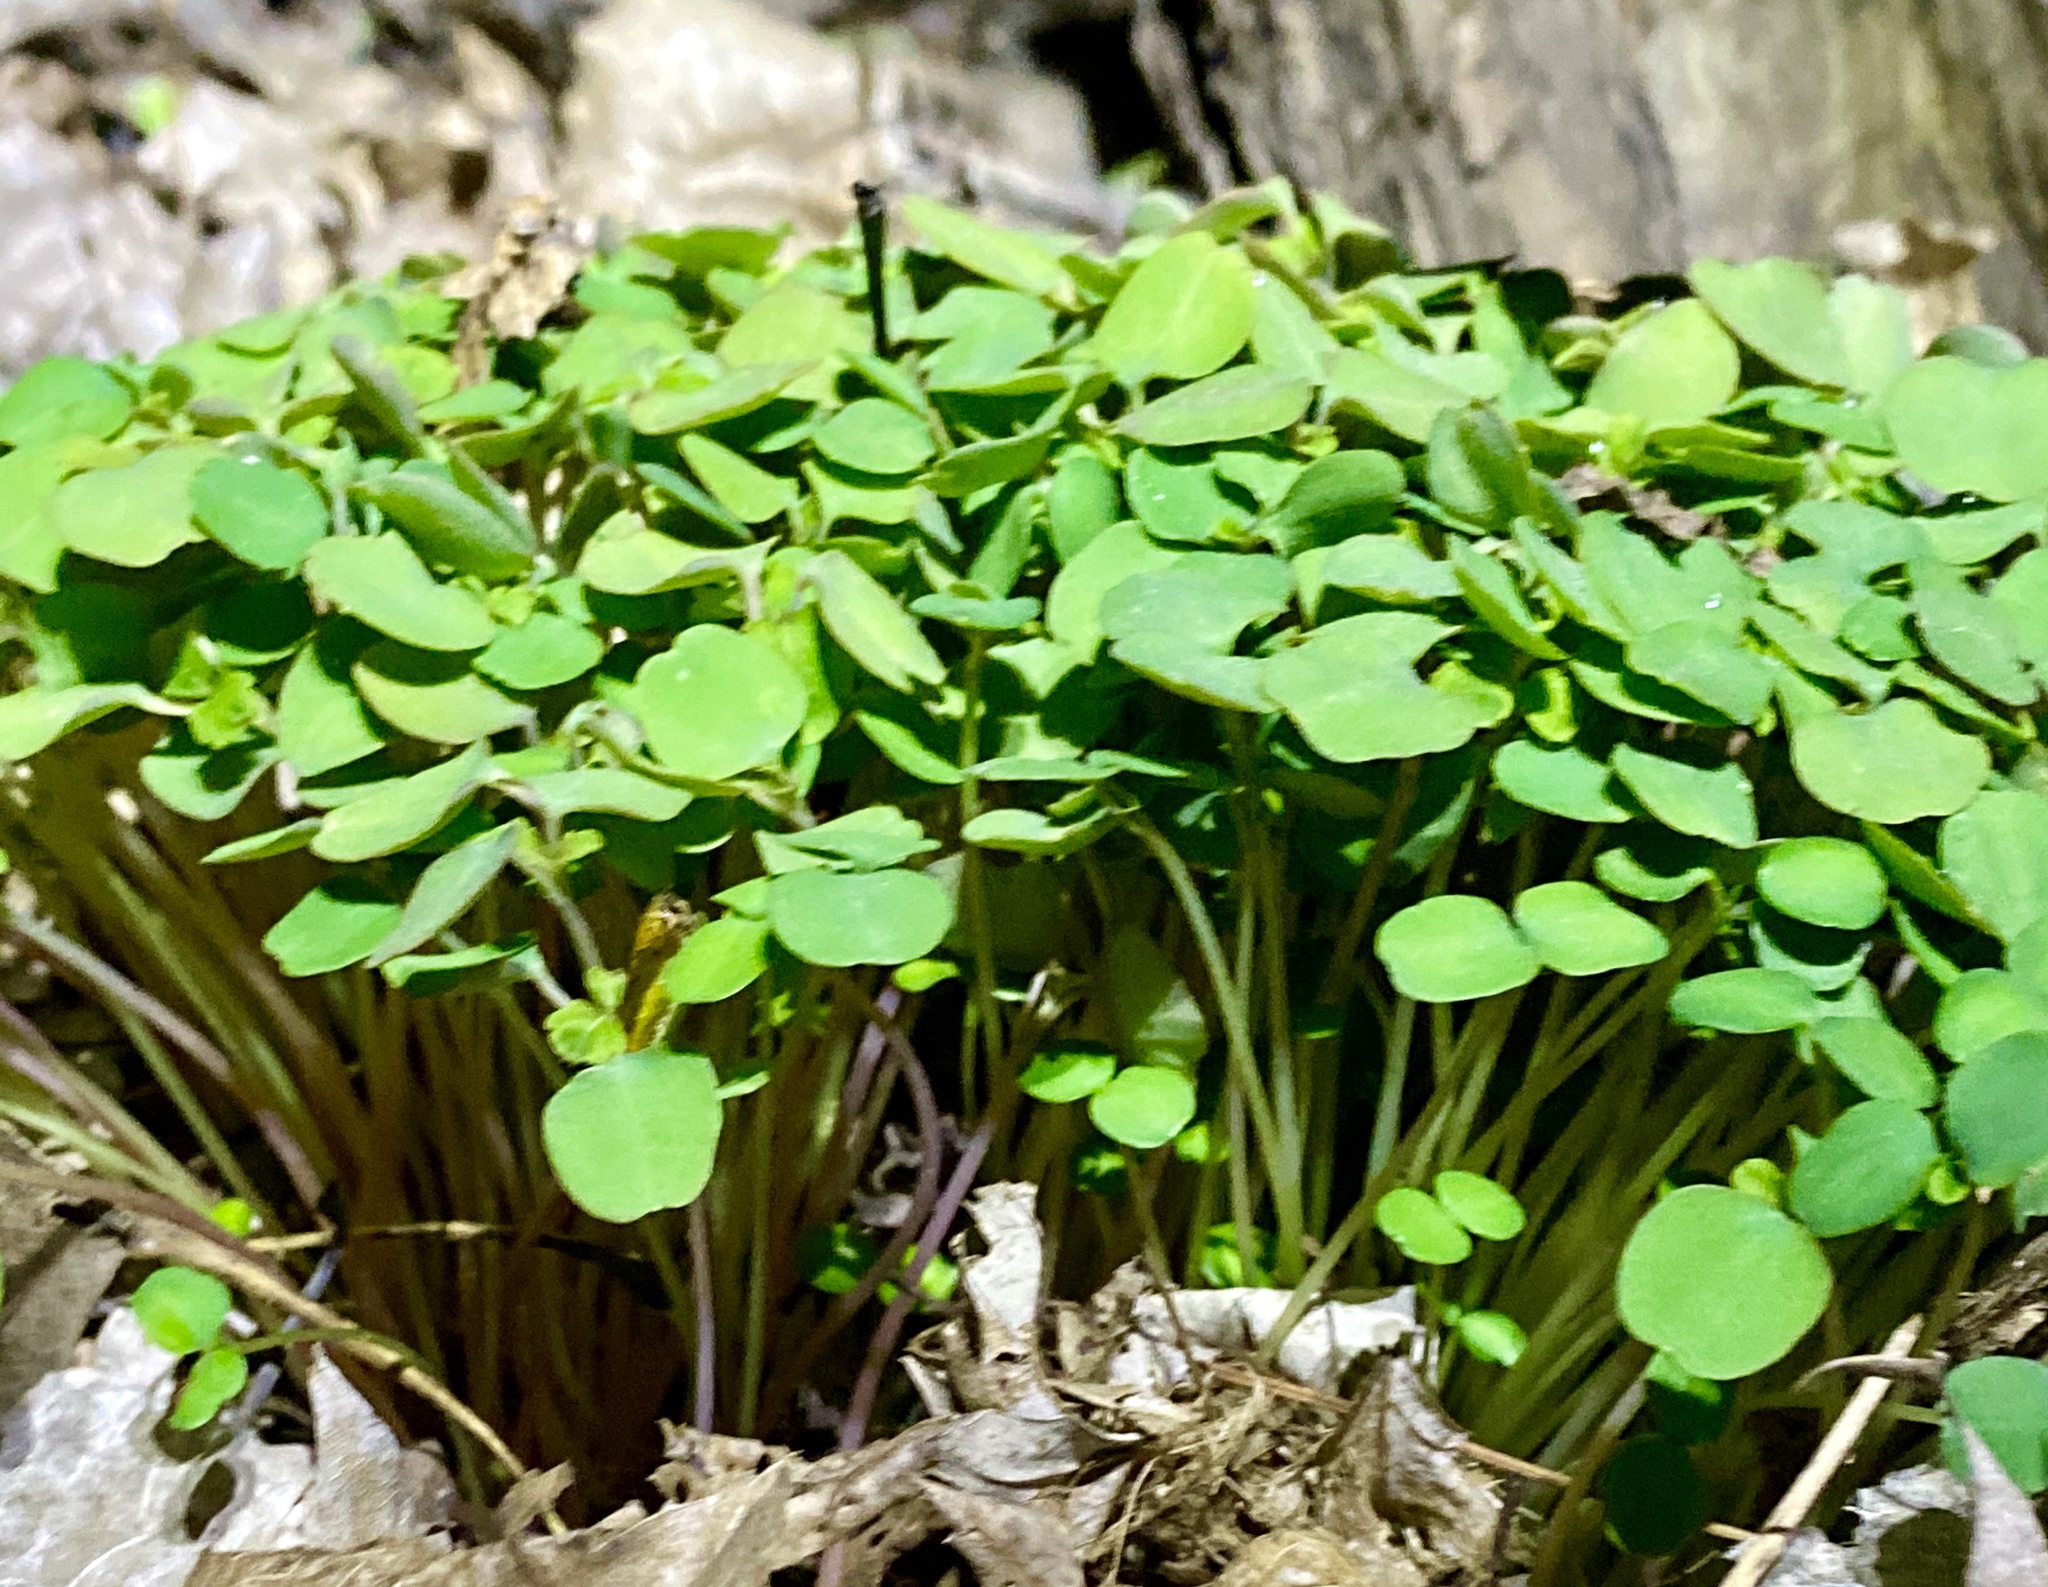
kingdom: Plantae
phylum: Tracheophyta
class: Magnoliopsida
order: Ericales
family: Balsaminaceae
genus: Impatiens
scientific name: Impatiens capensis
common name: Orange balsam
